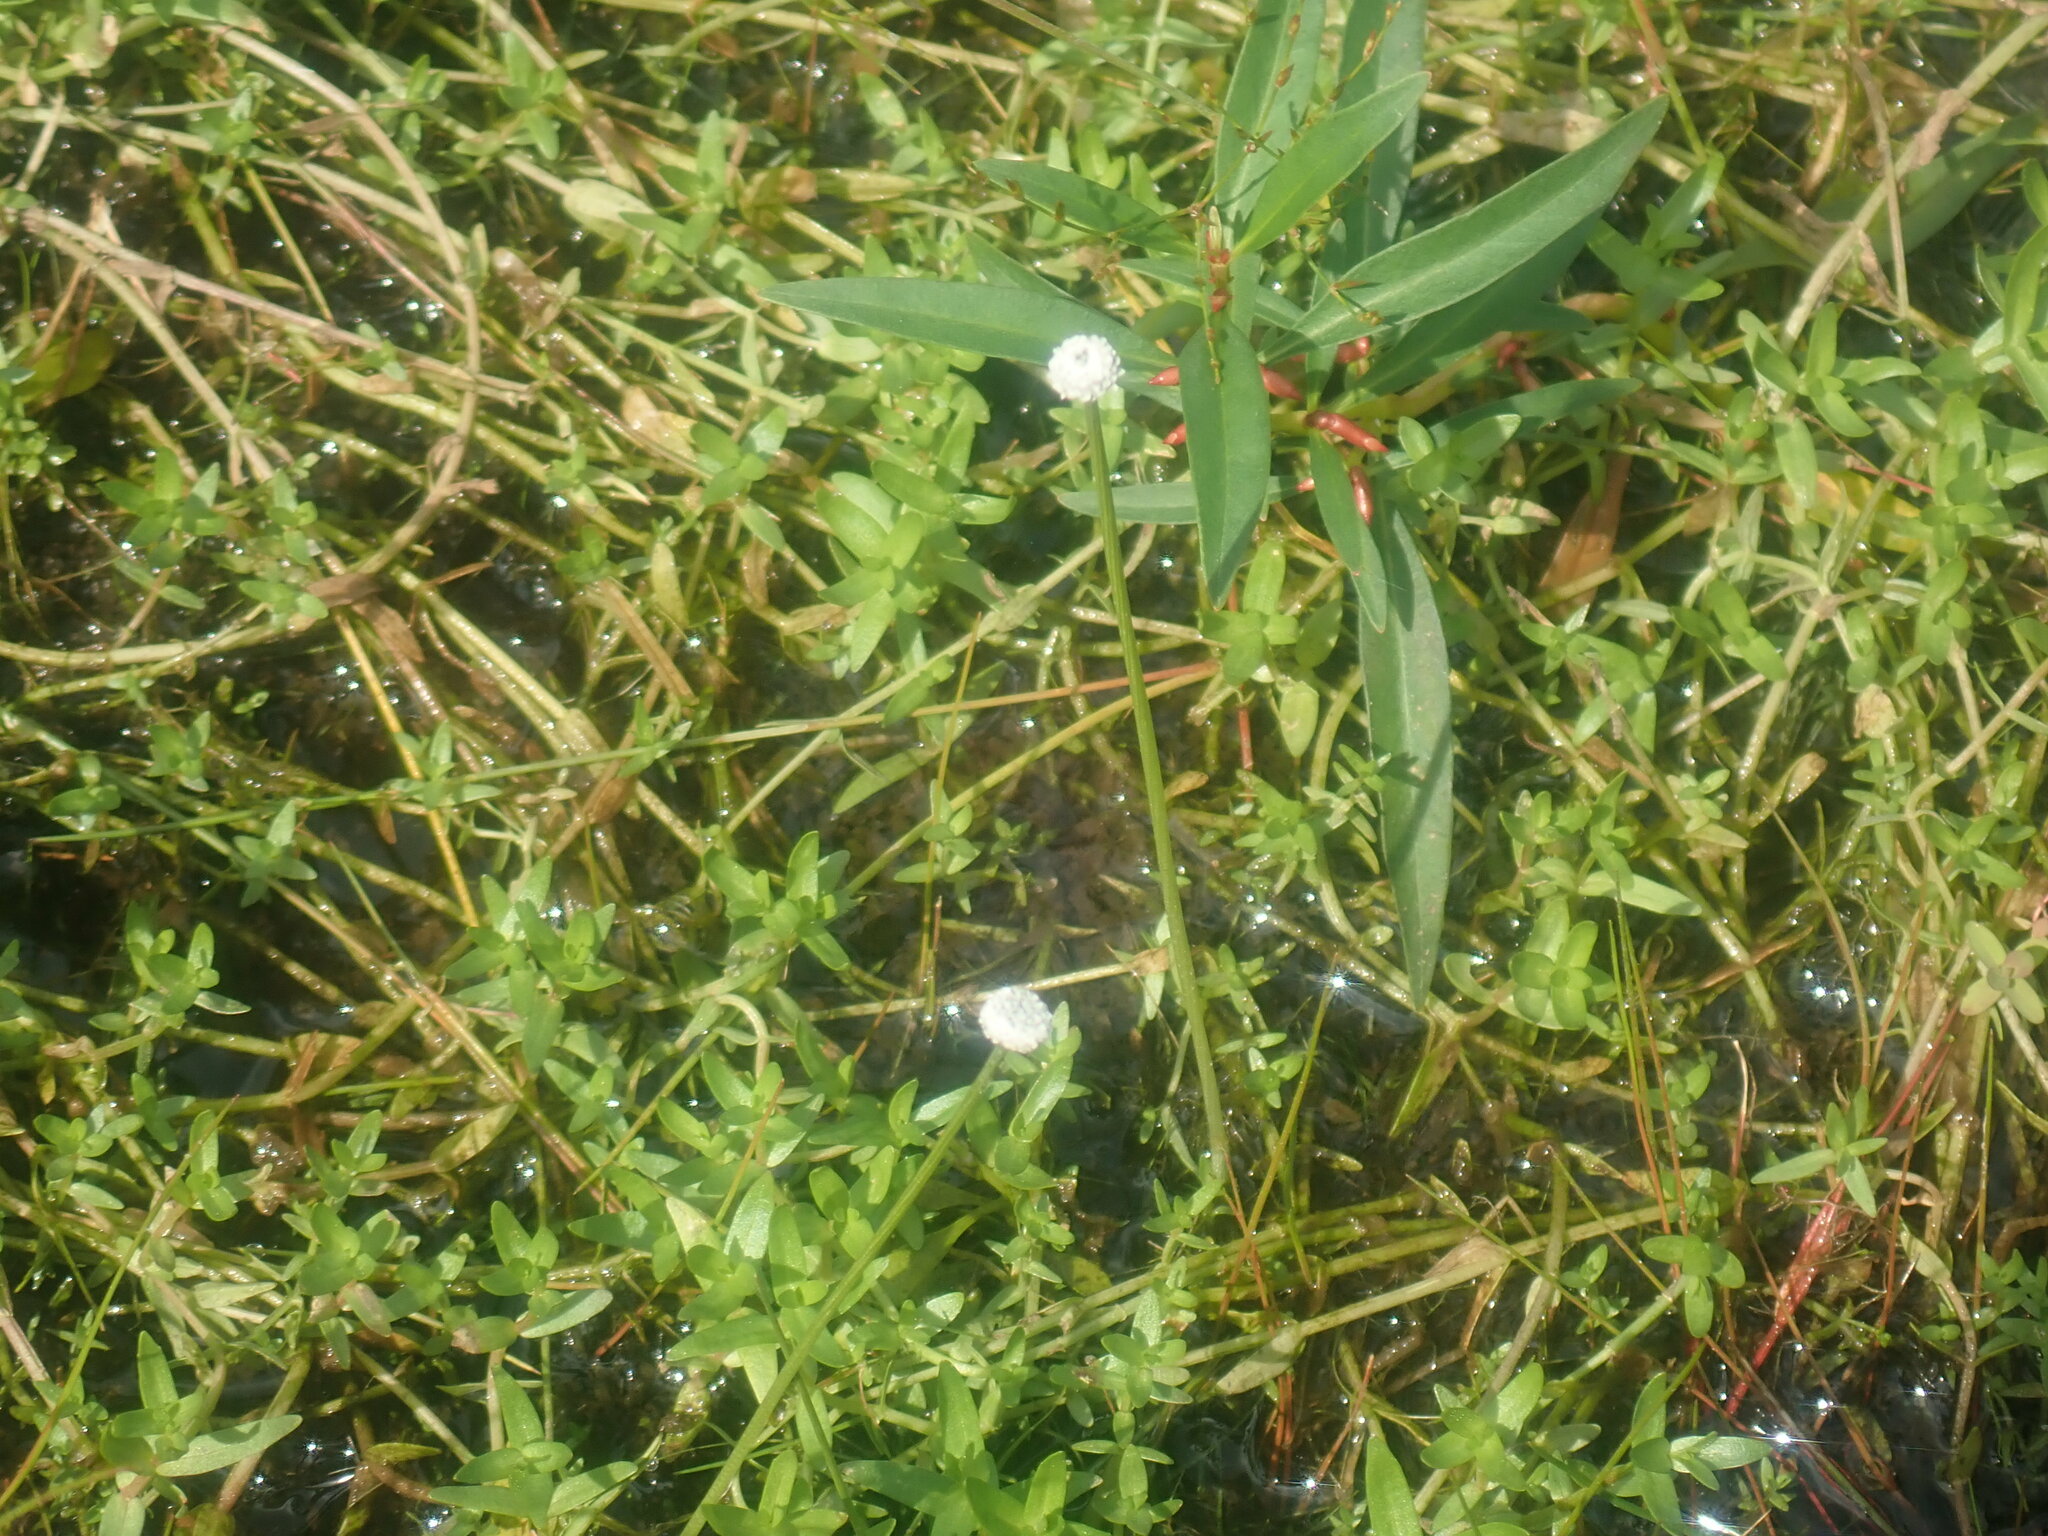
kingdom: Plantae
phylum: Tracheophyta
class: Liliopsida
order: Poales
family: Eriocaulaceae
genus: Eriocaulon
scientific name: Eriocaulon aquaticum
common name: Pipewort
